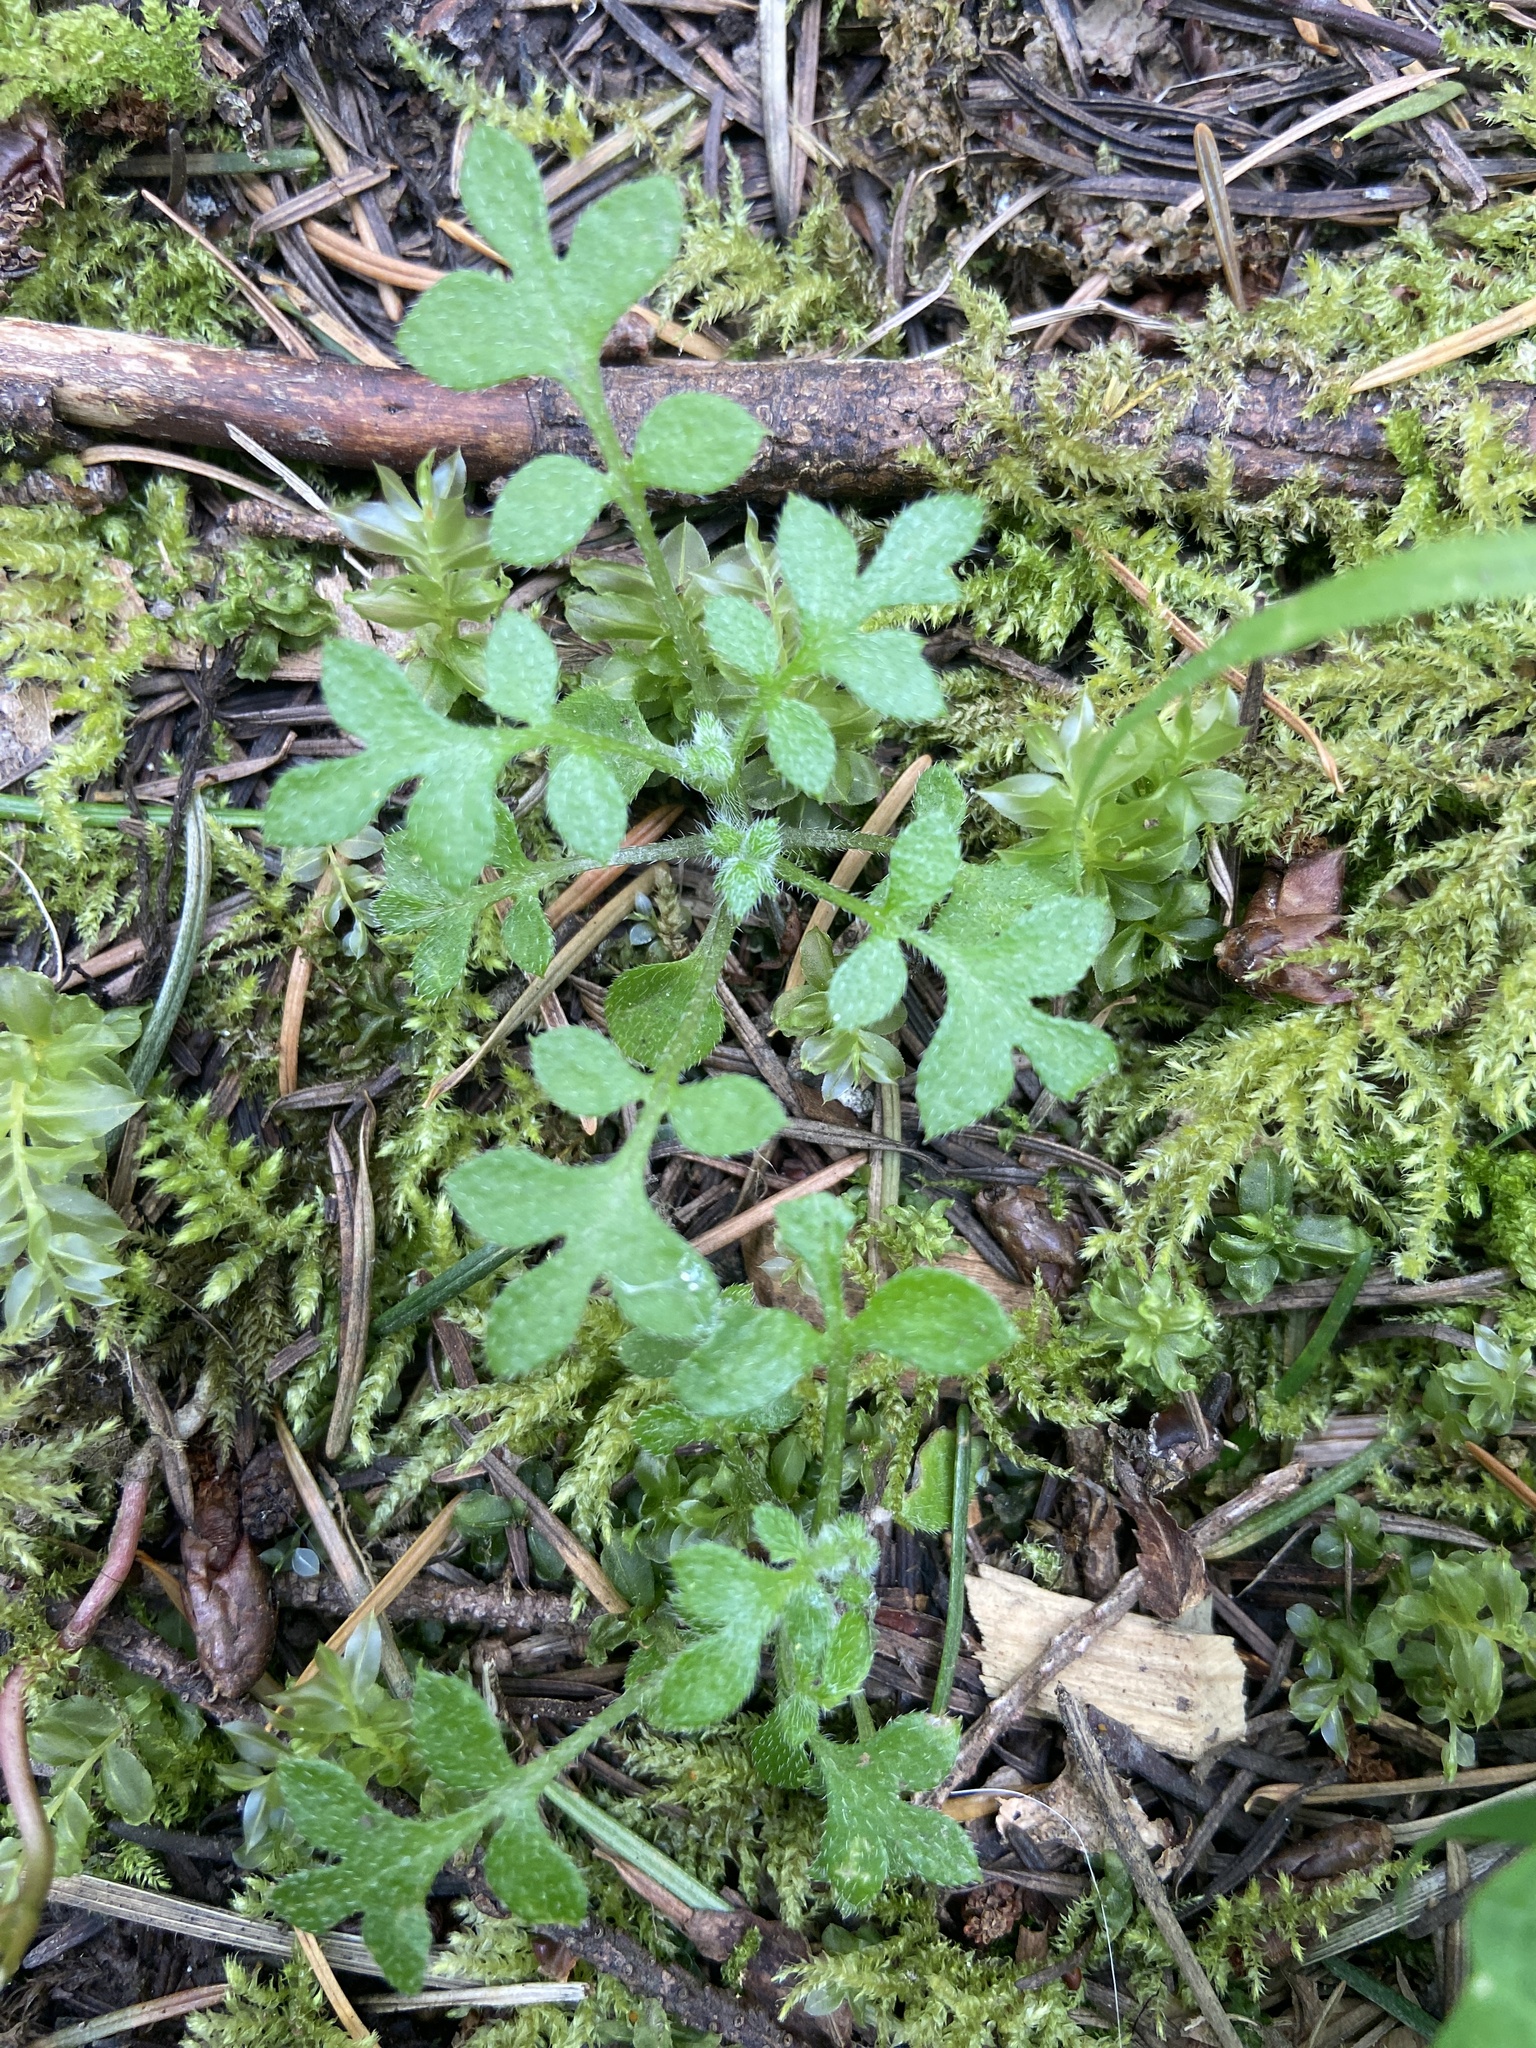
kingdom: Plantae
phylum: Tracheophyta
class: Magnoliopsida
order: Boraginales
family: Hydrophyllaceae
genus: Nemophila
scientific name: Nemophila parviflora
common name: Small-flowered baby-blue-eyes
